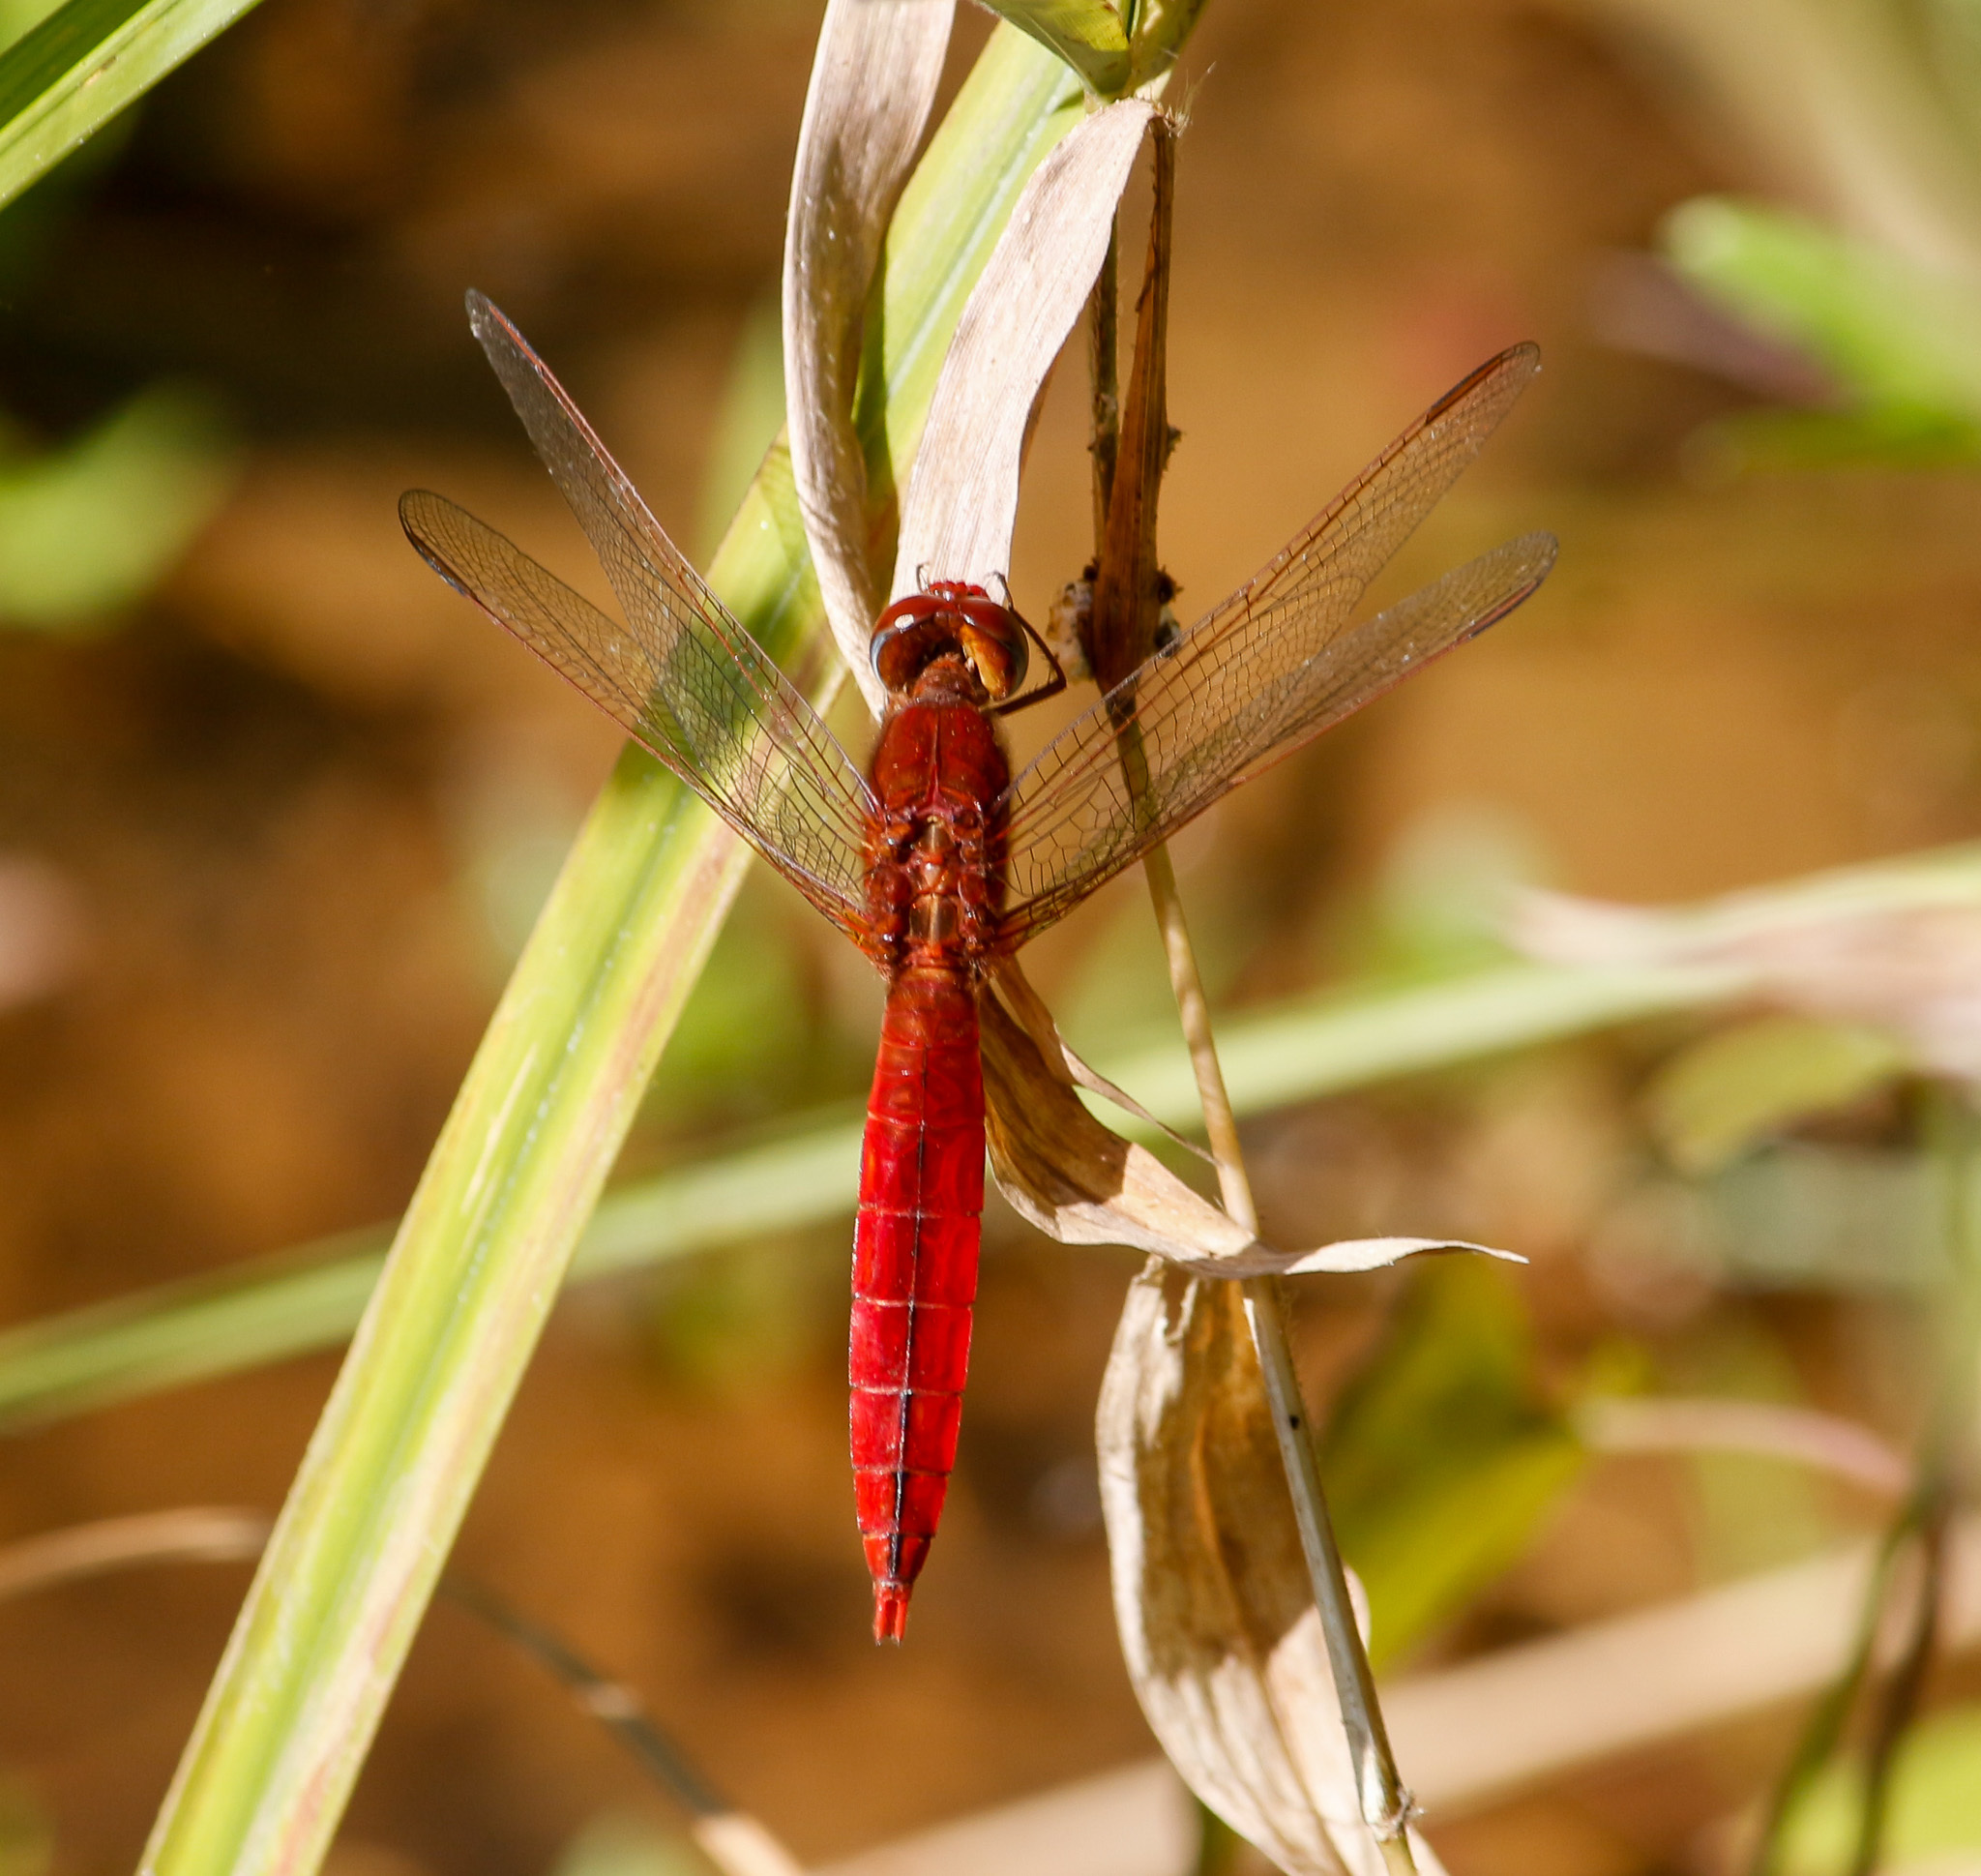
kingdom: Animalia
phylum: Arthropoda
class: Insecta
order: Odonata
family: Libellulidae
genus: Crocothemis
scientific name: Crocothemis servilia
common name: Scarlet skimmer
